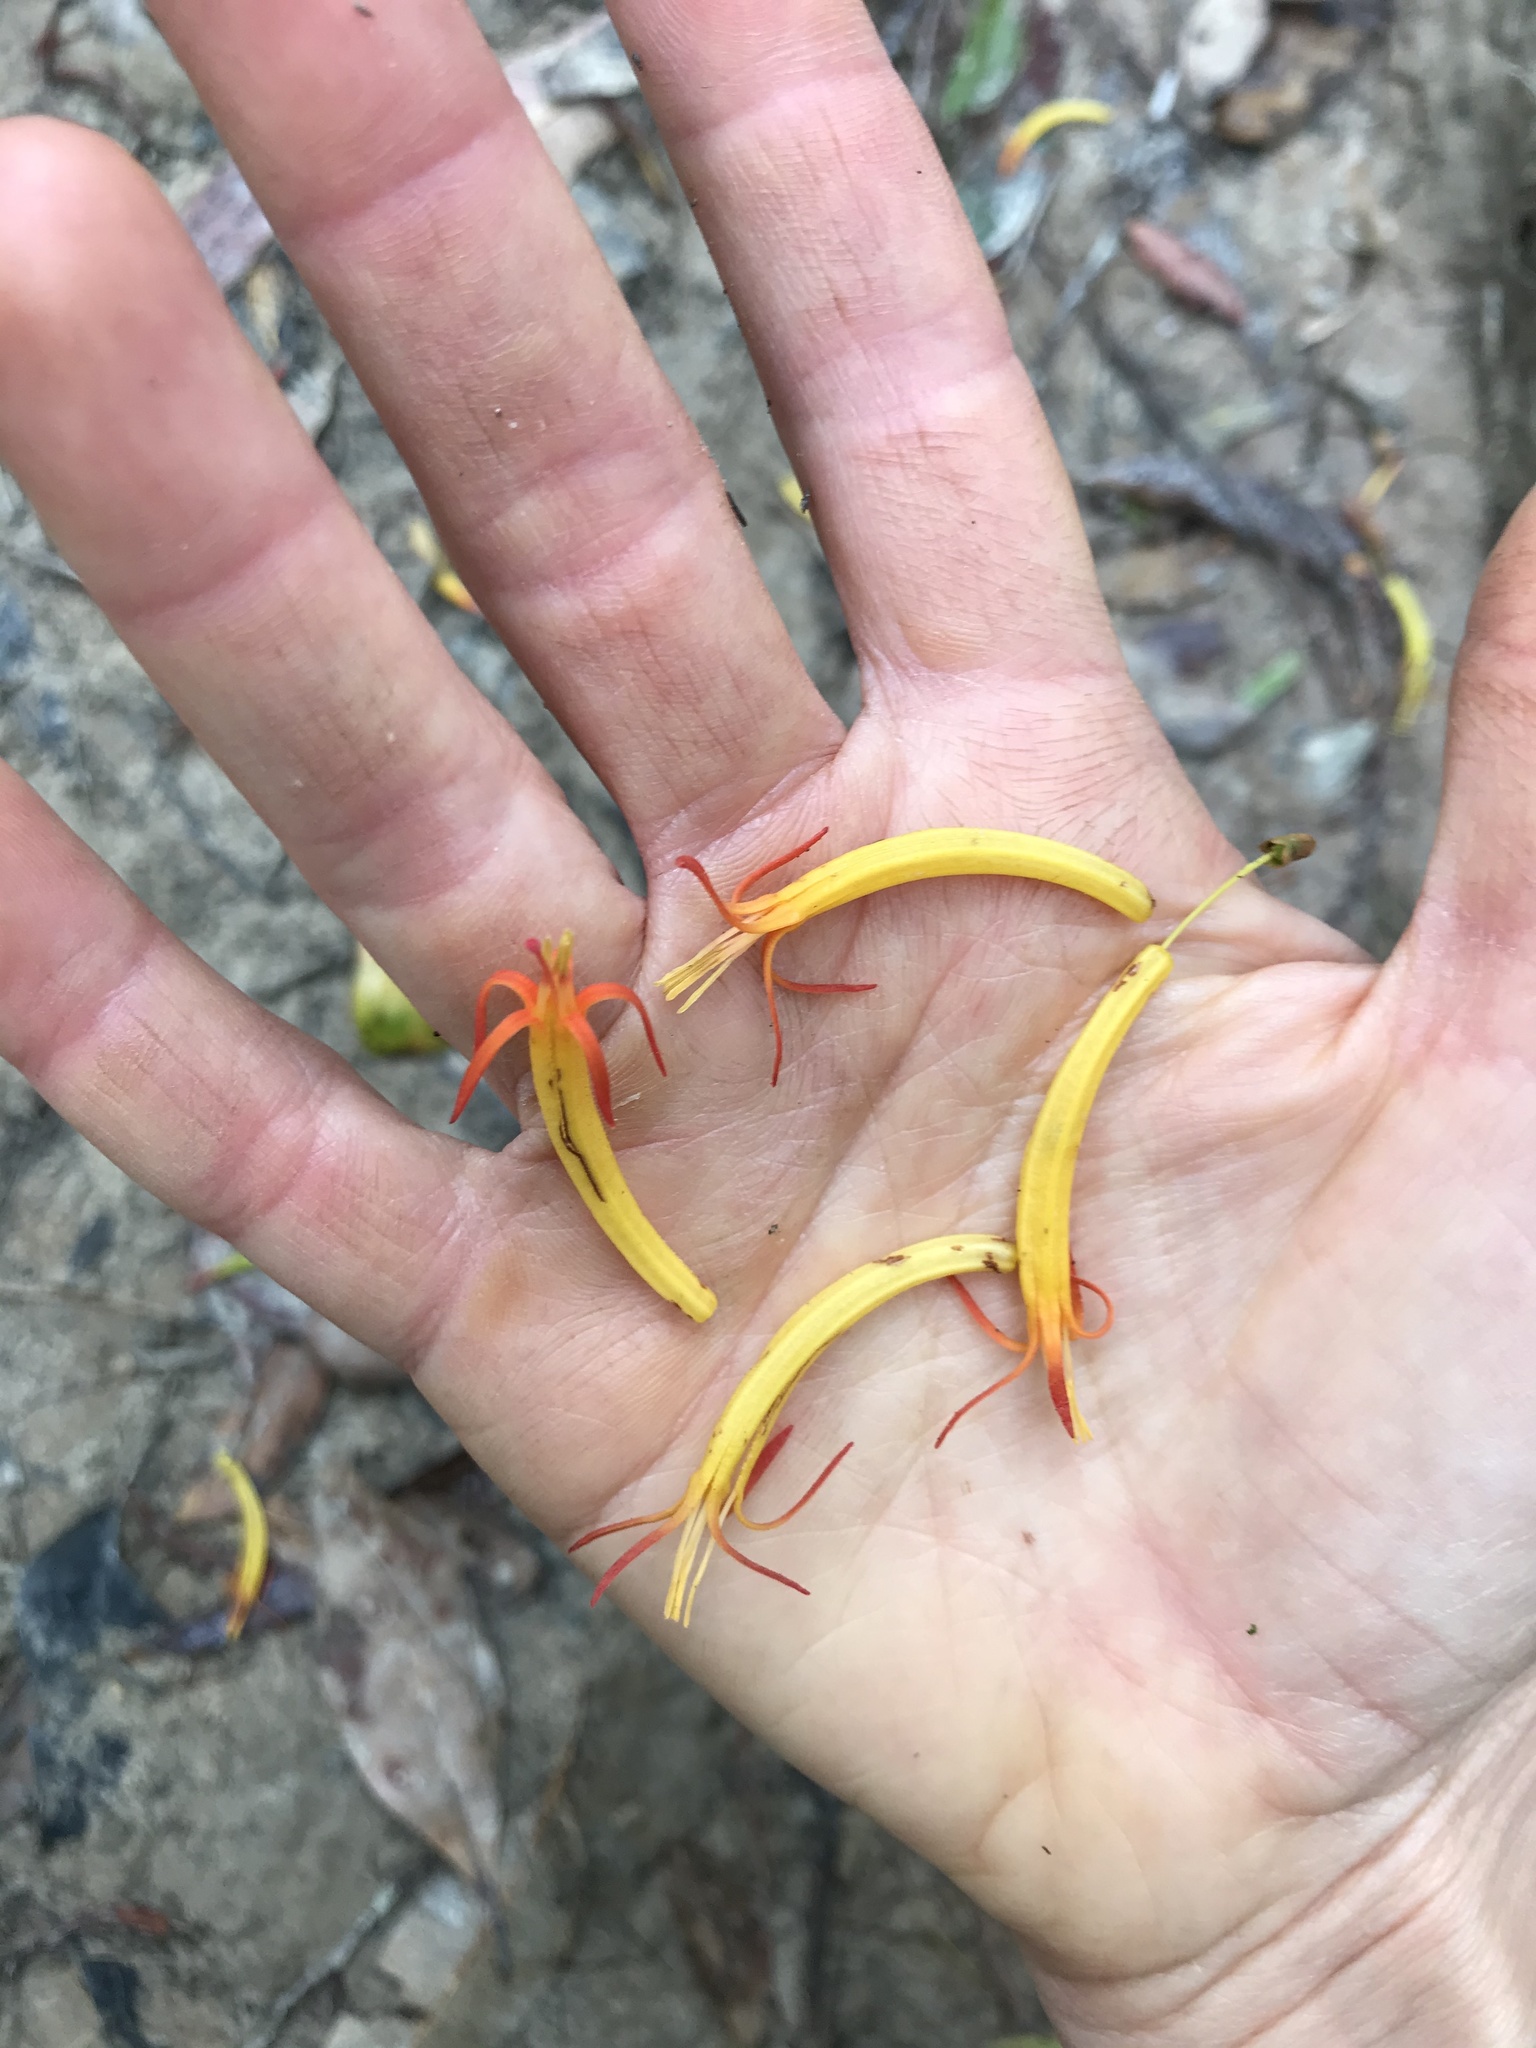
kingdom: Plantae
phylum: Tracheophyta
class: Magnoliopsida
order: Santalales
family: Loranthaceae
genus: Dendrophthoe
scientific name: Dendrophthoe vitellina
